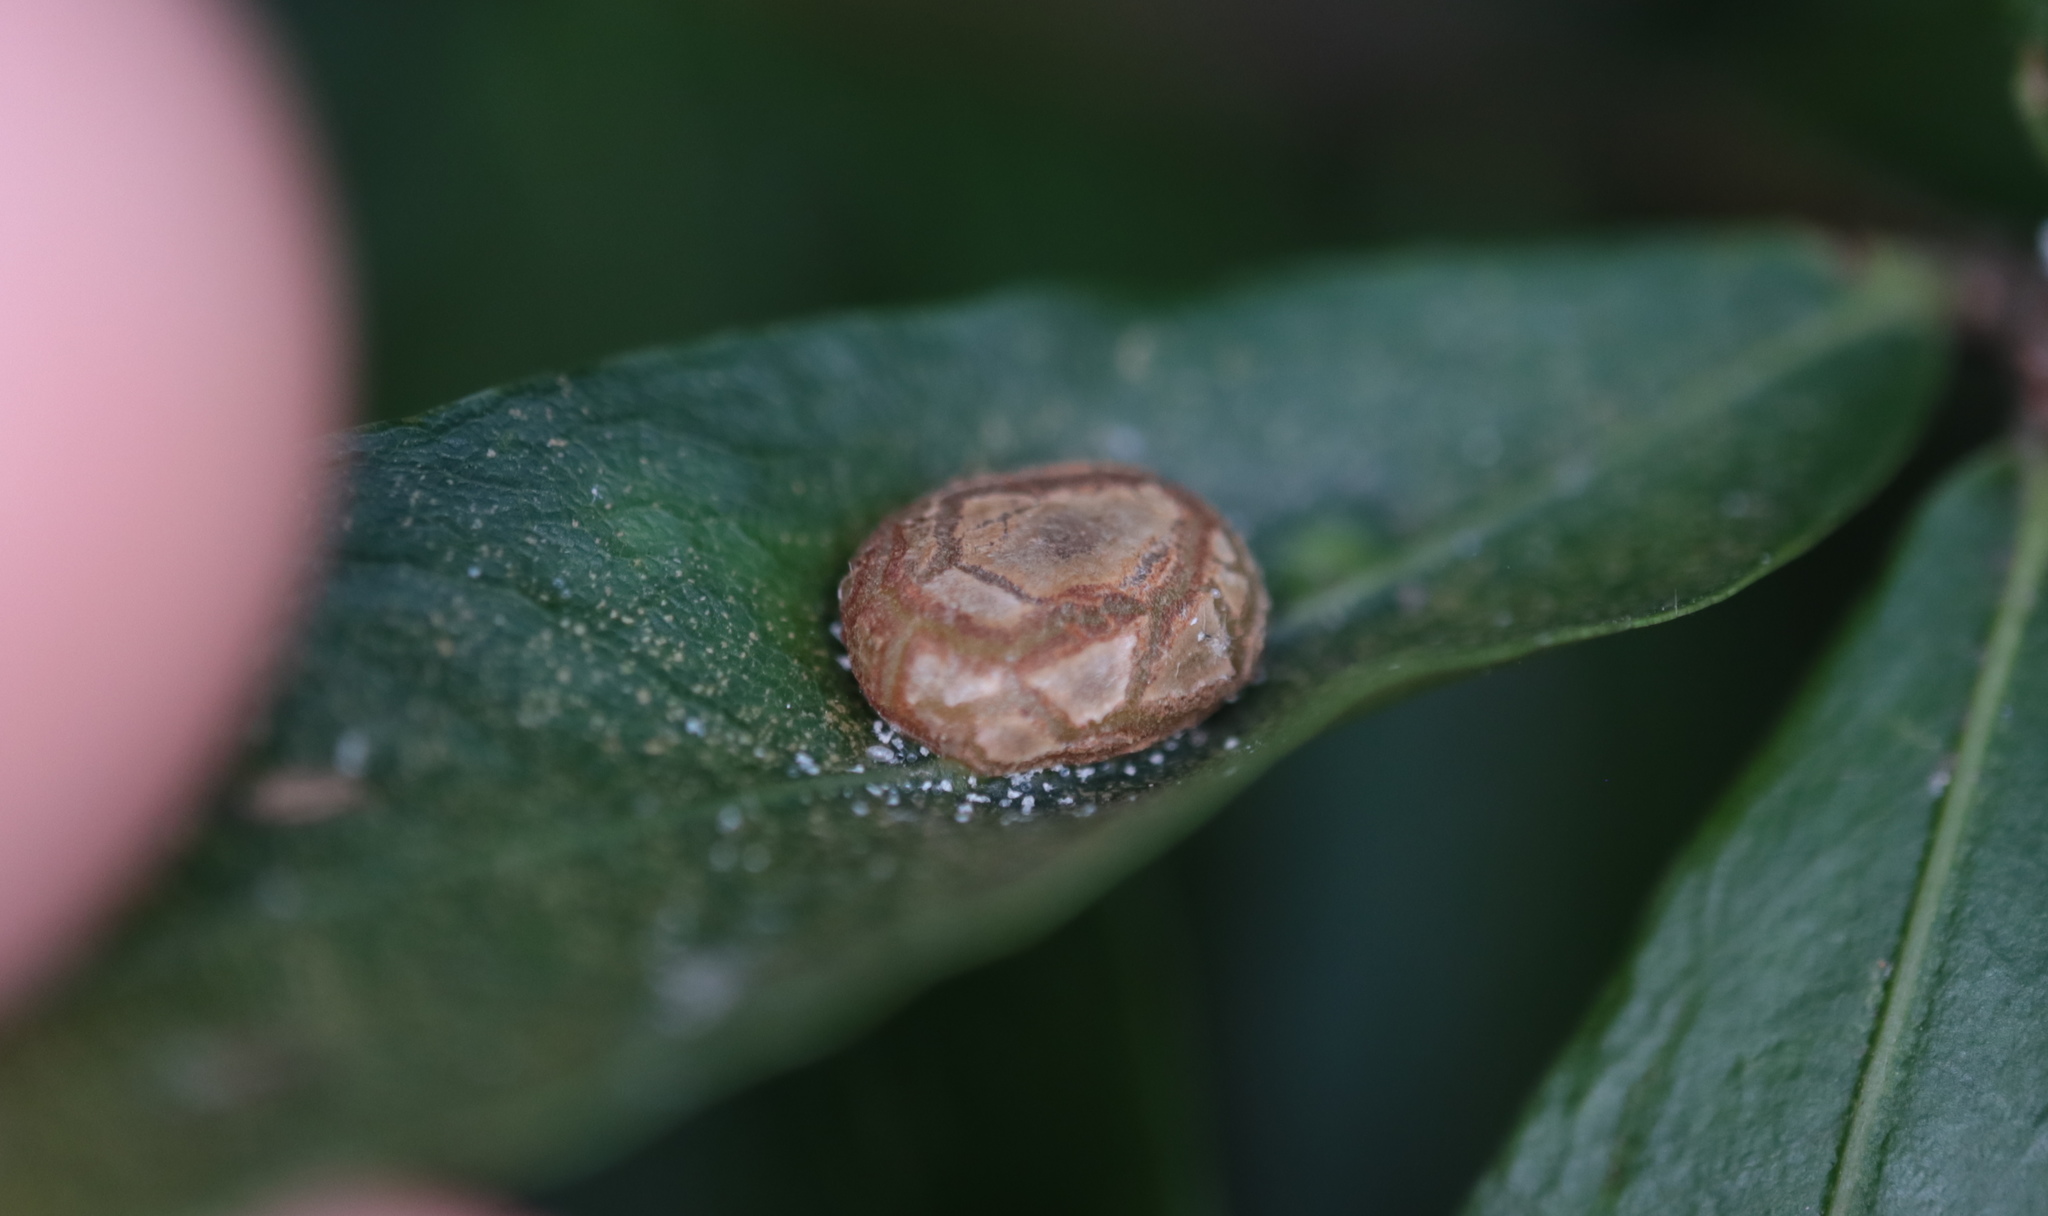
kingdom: Animalia
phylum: Arthropoda
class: Insecta
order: Diptera
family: Cecidomyiidae
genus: Polystepha
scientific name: Polystepha pilulae
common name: Oak leaf gall midge
